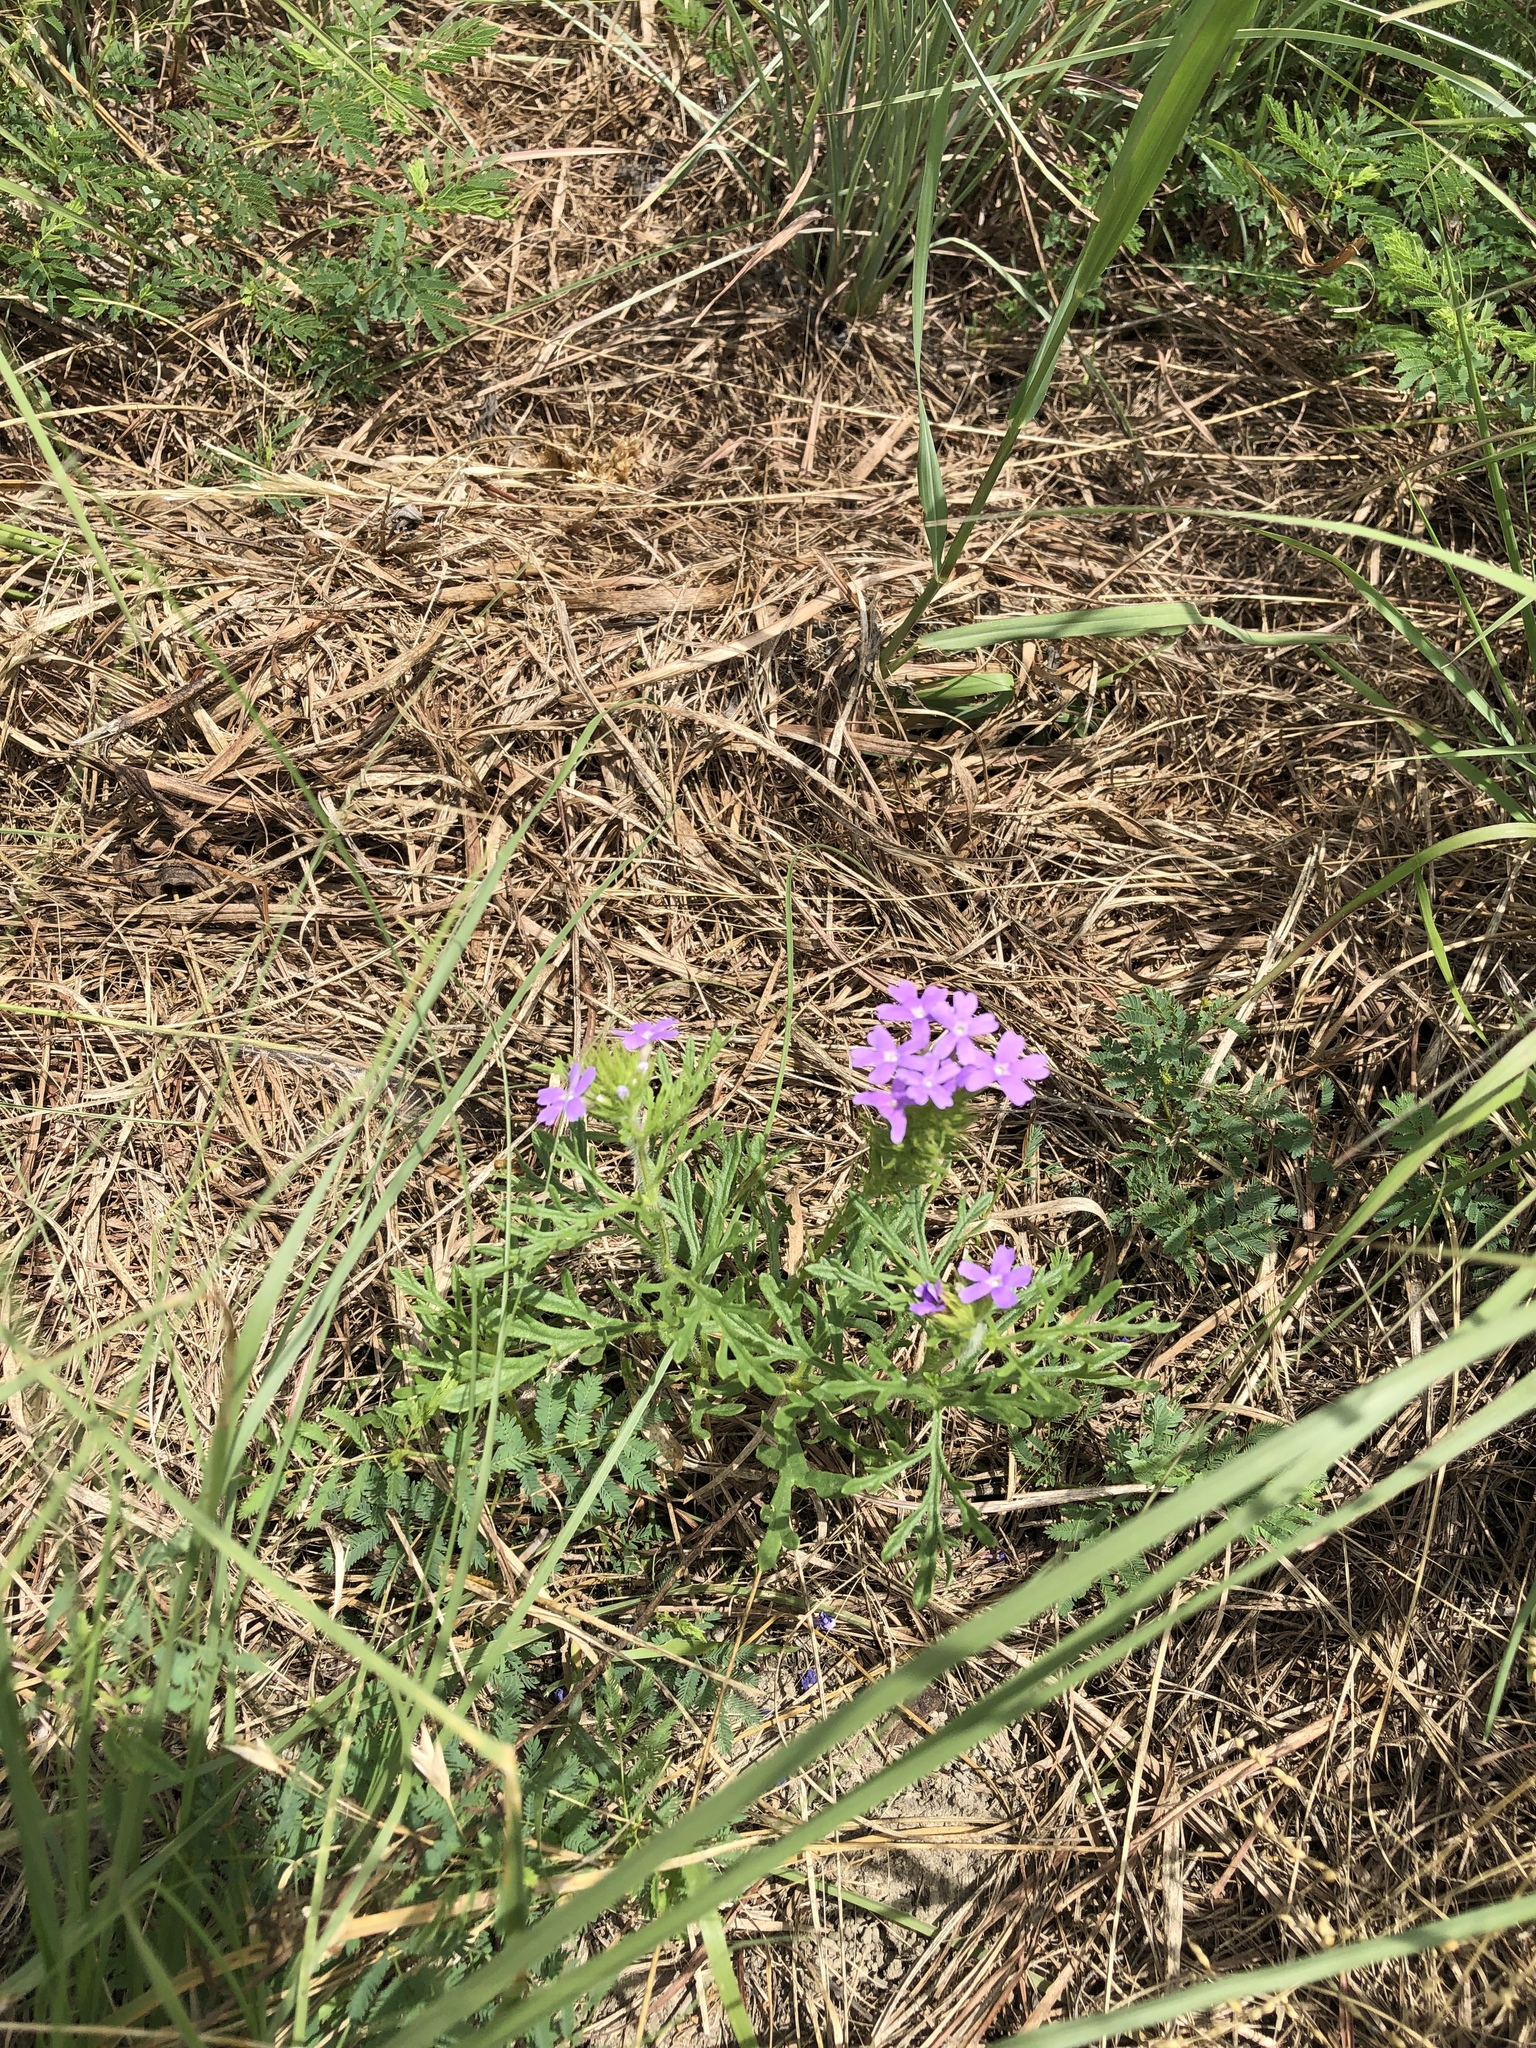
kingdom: Plantae
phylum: Tracheophyta
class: Magnoliopsida
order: Lamiales
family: Verbenaceae
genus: Verbena
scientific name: Verbena bipinnatifida
